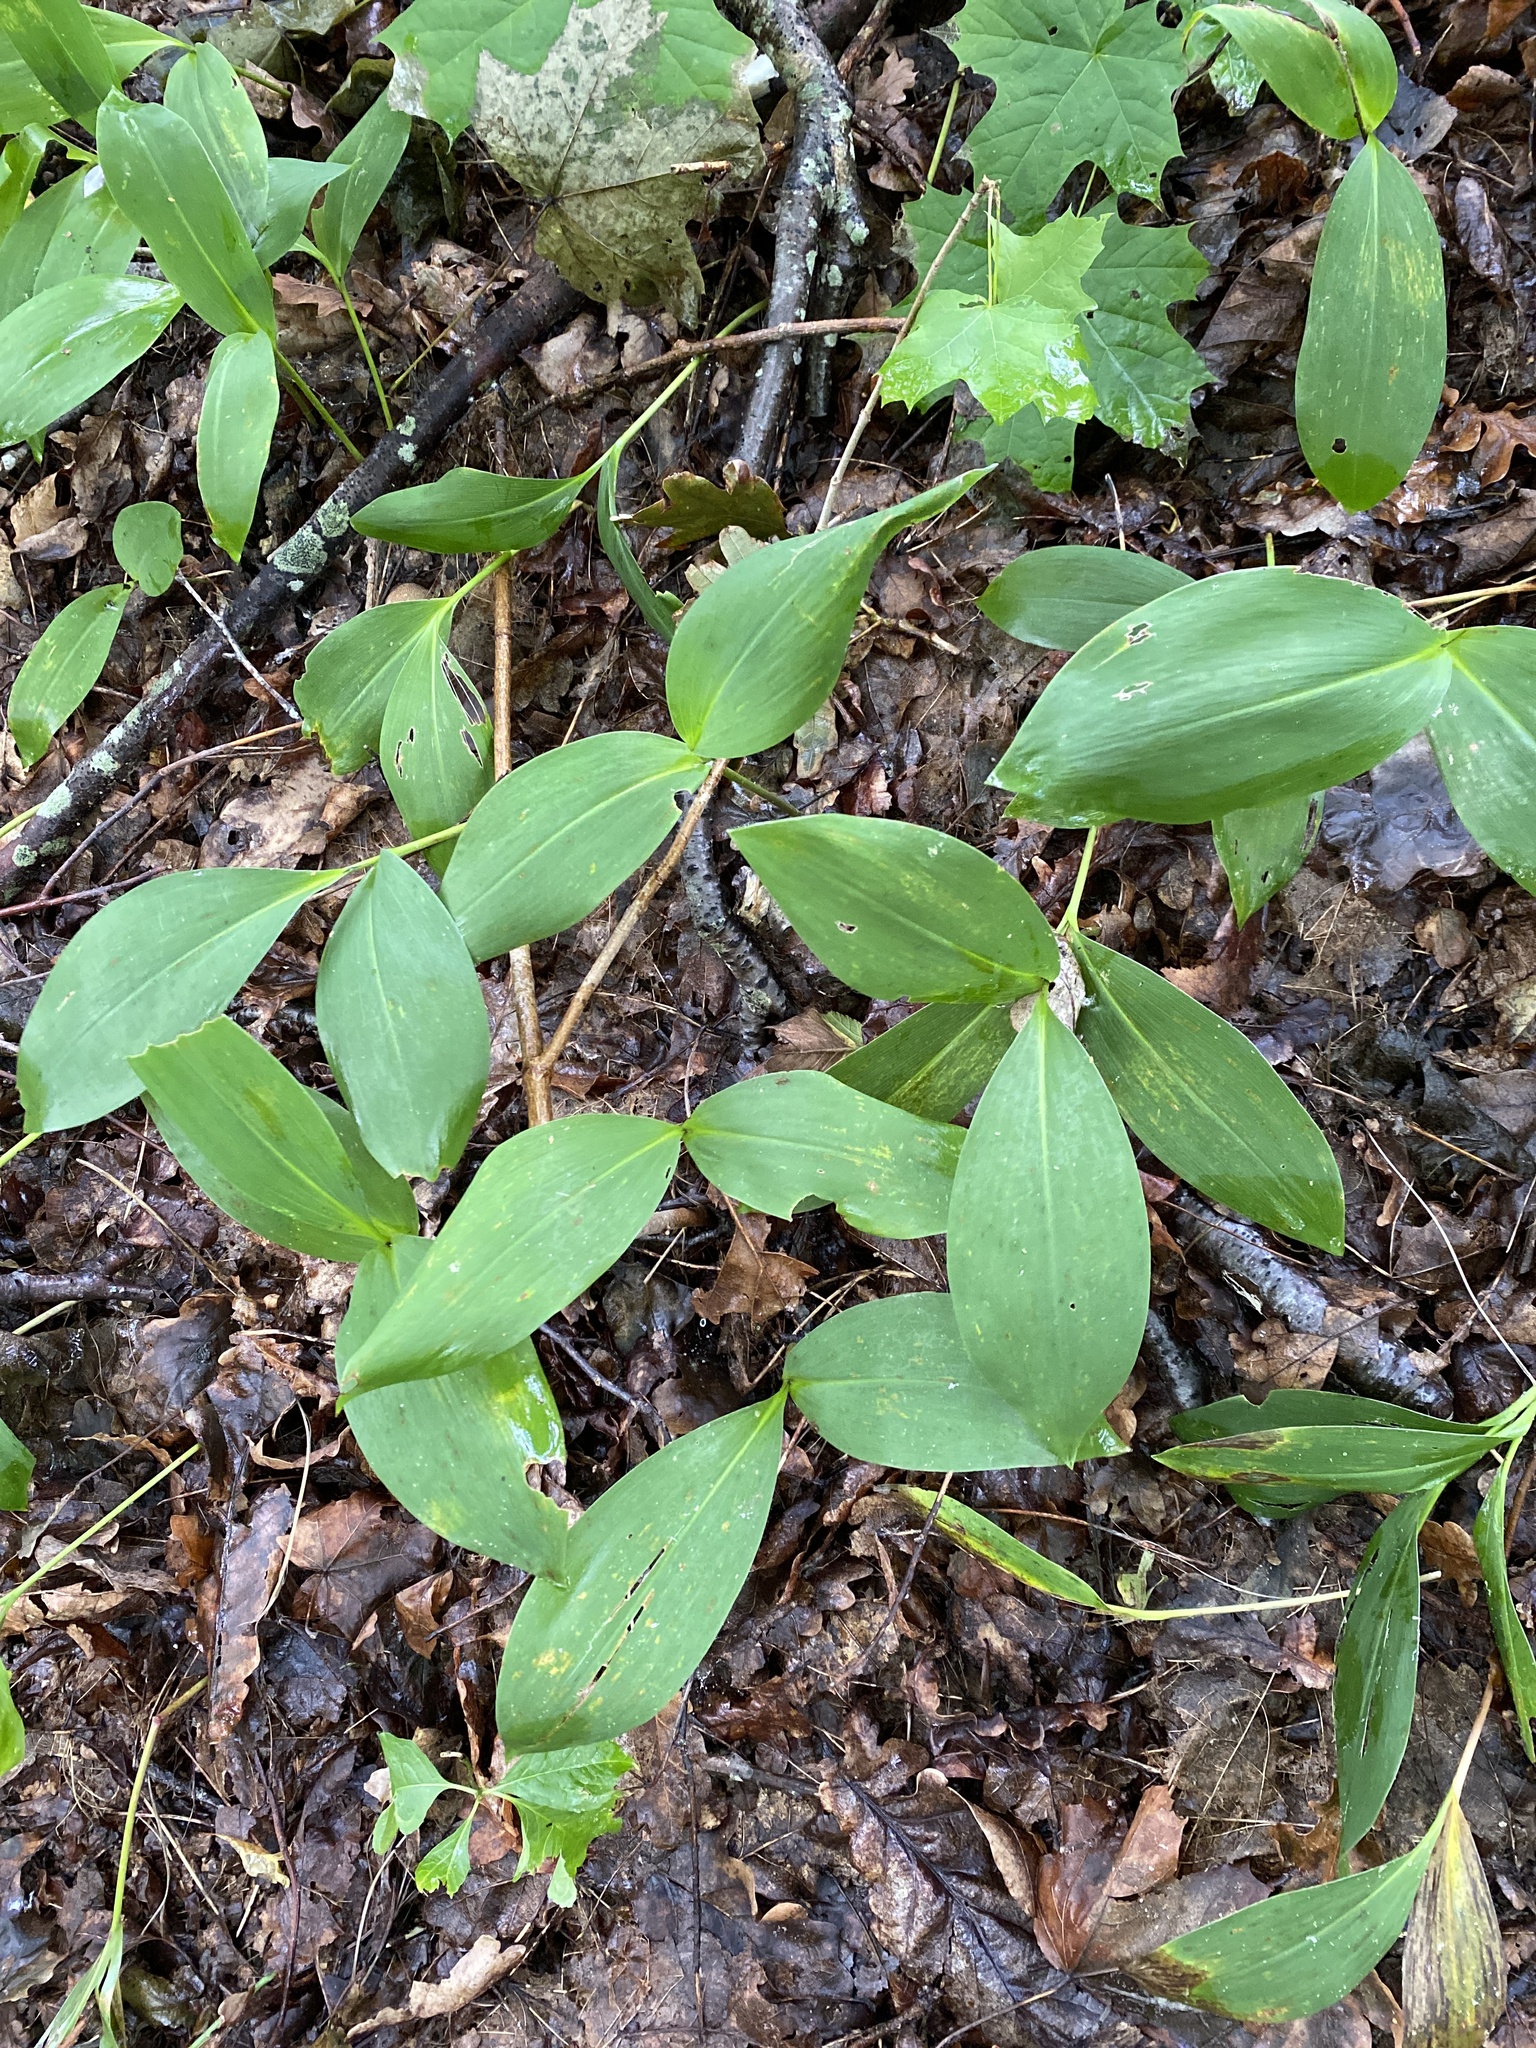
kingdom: Plantae
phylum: Tracheophyta
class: Liliopsida
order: Asparagales
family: Asparagaceae
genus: Convallaria
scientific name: Convallaria majalis
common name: Lily-of-the-valley
